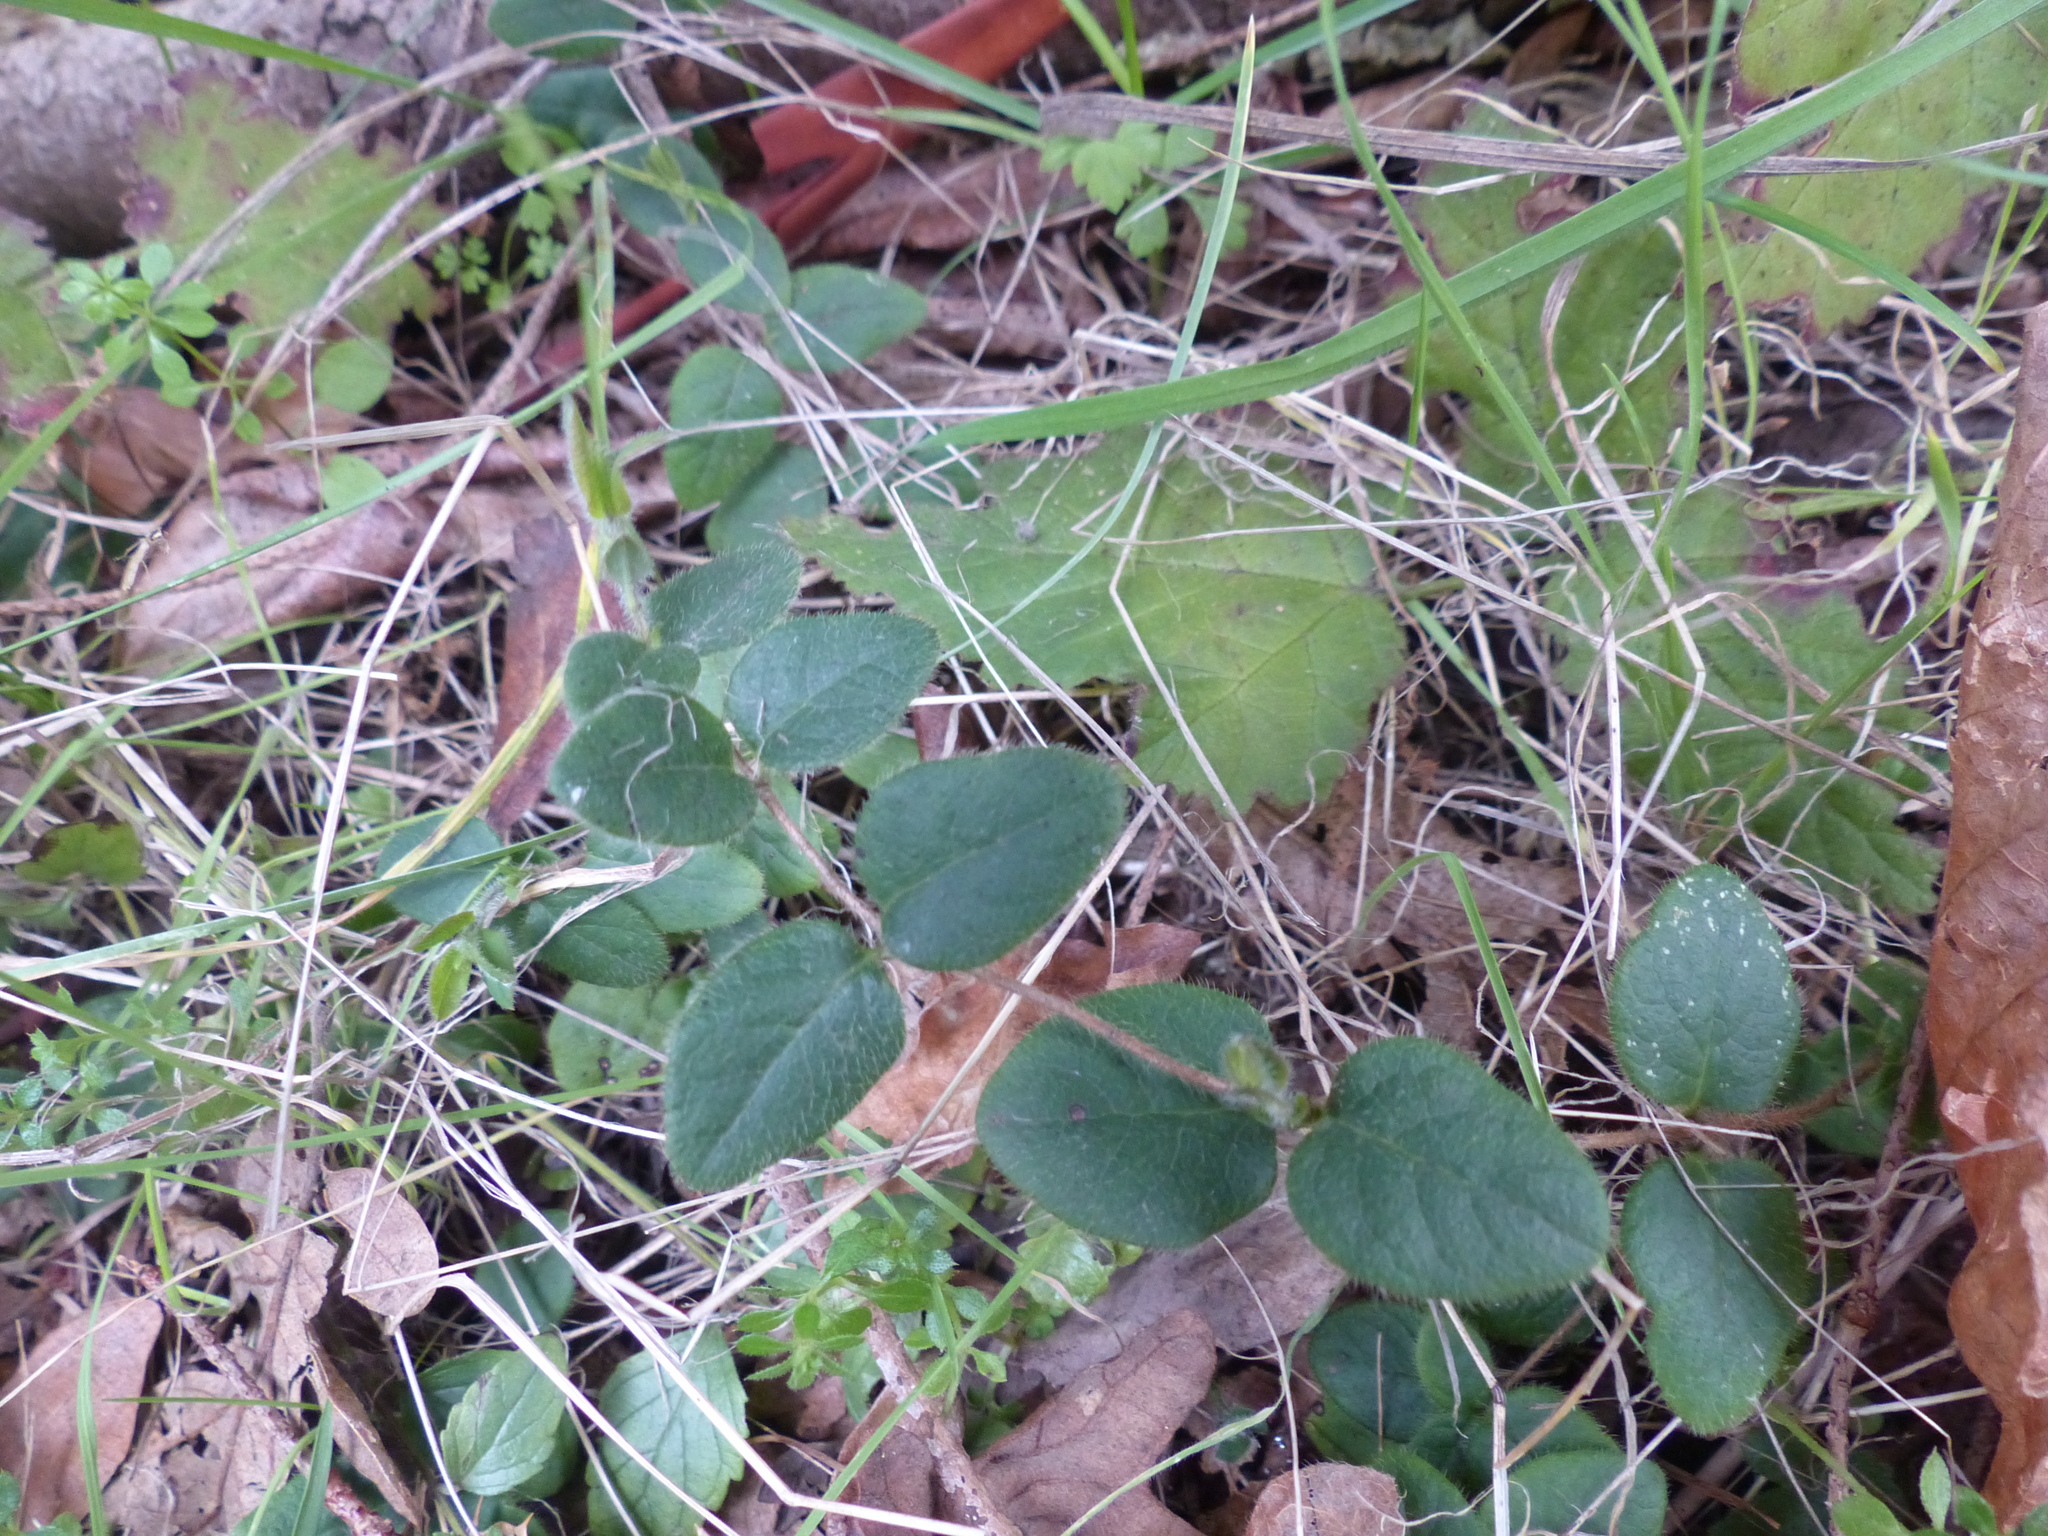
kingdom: Plantae
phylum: Tracheophyta
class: Magnoliopsida
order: Dipsacales
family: Caprifoliaceae
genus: Lonicera
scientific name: Lonicera hispidula
